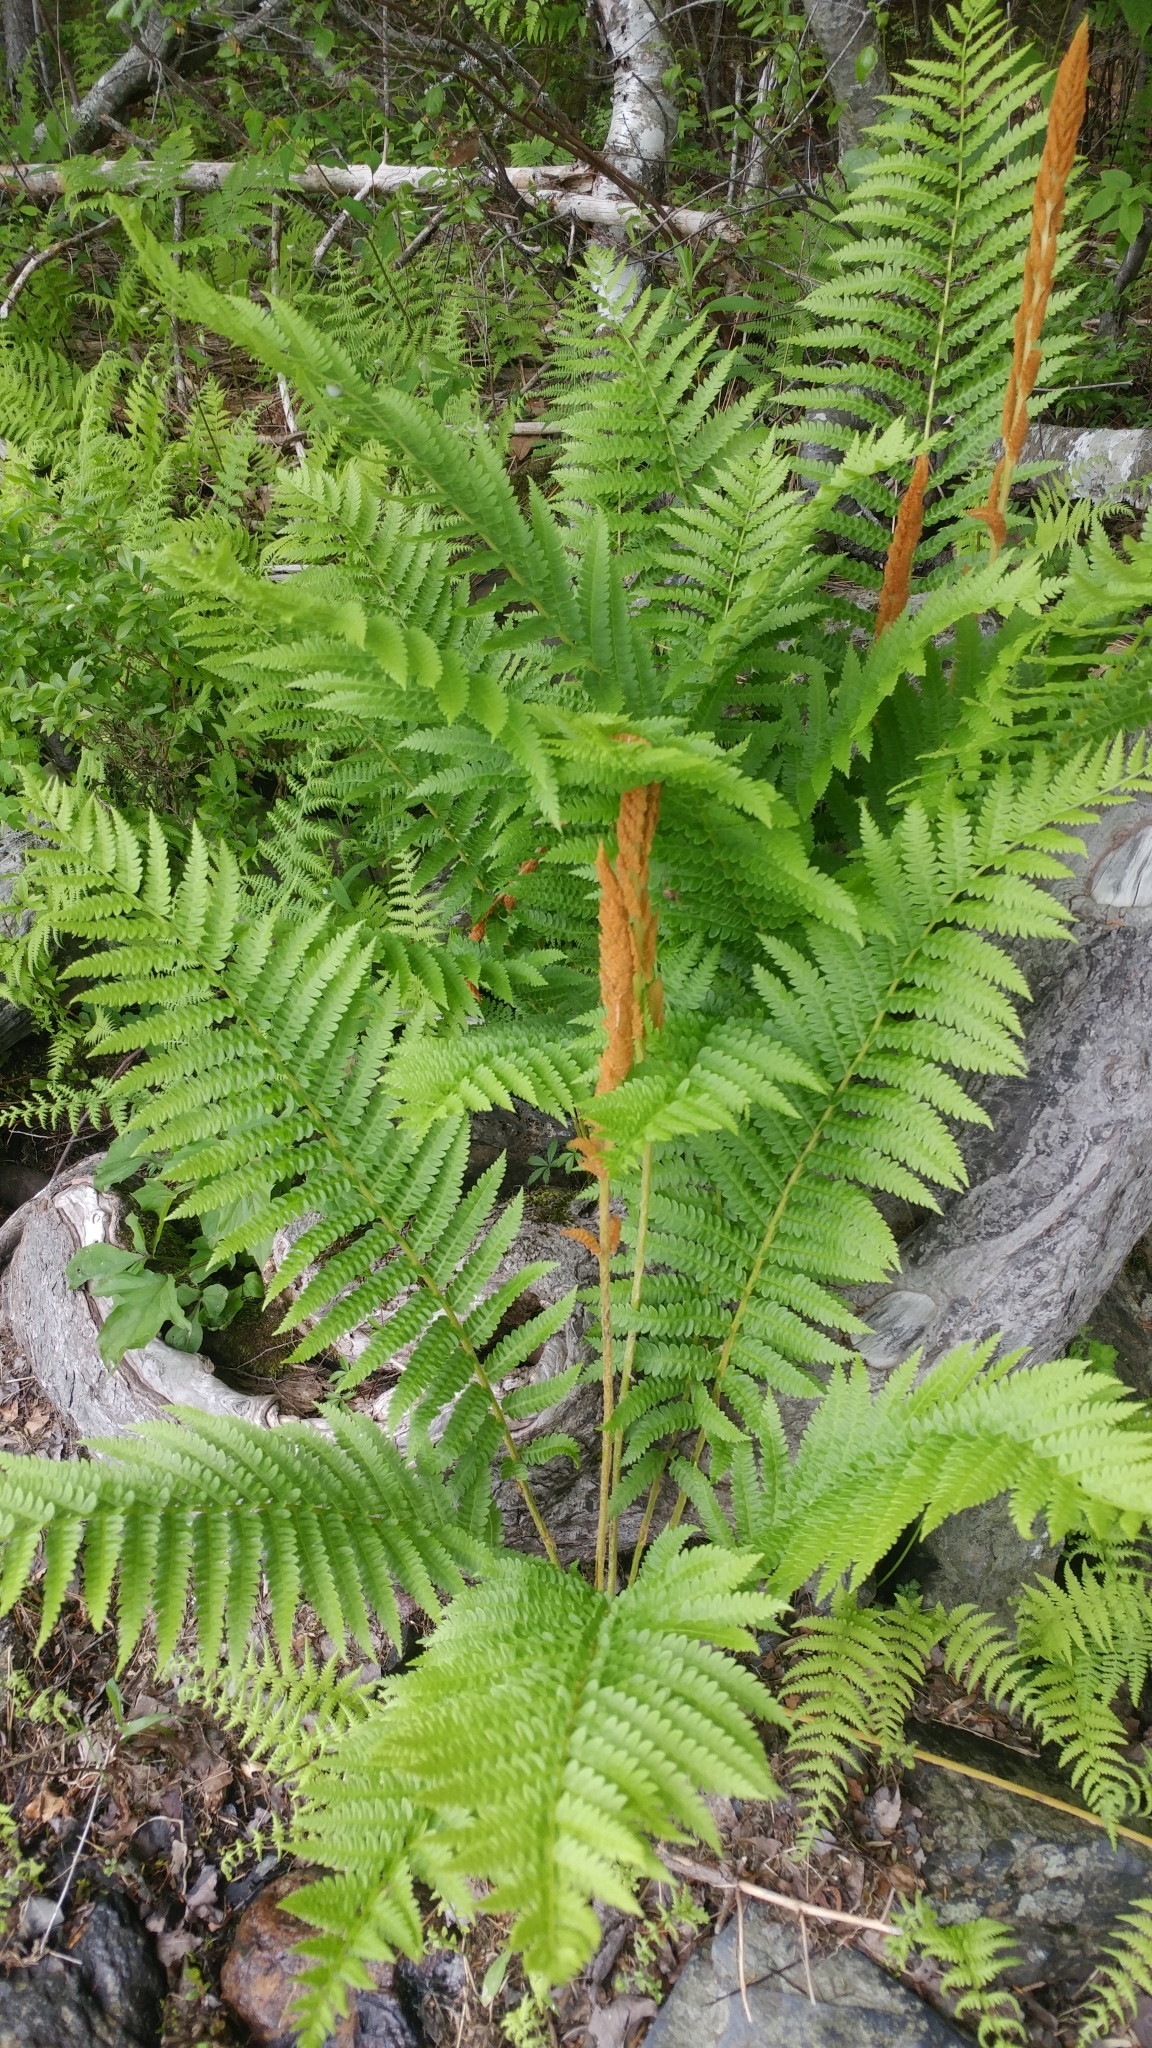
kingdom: Plantae
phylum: Tracheophyta
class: Polypodiopsida
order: Osmundales
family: Osmundaceae
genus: Osmundastrum
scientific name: Osmundastrum cinnamomeum
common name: Cinnamon fern
